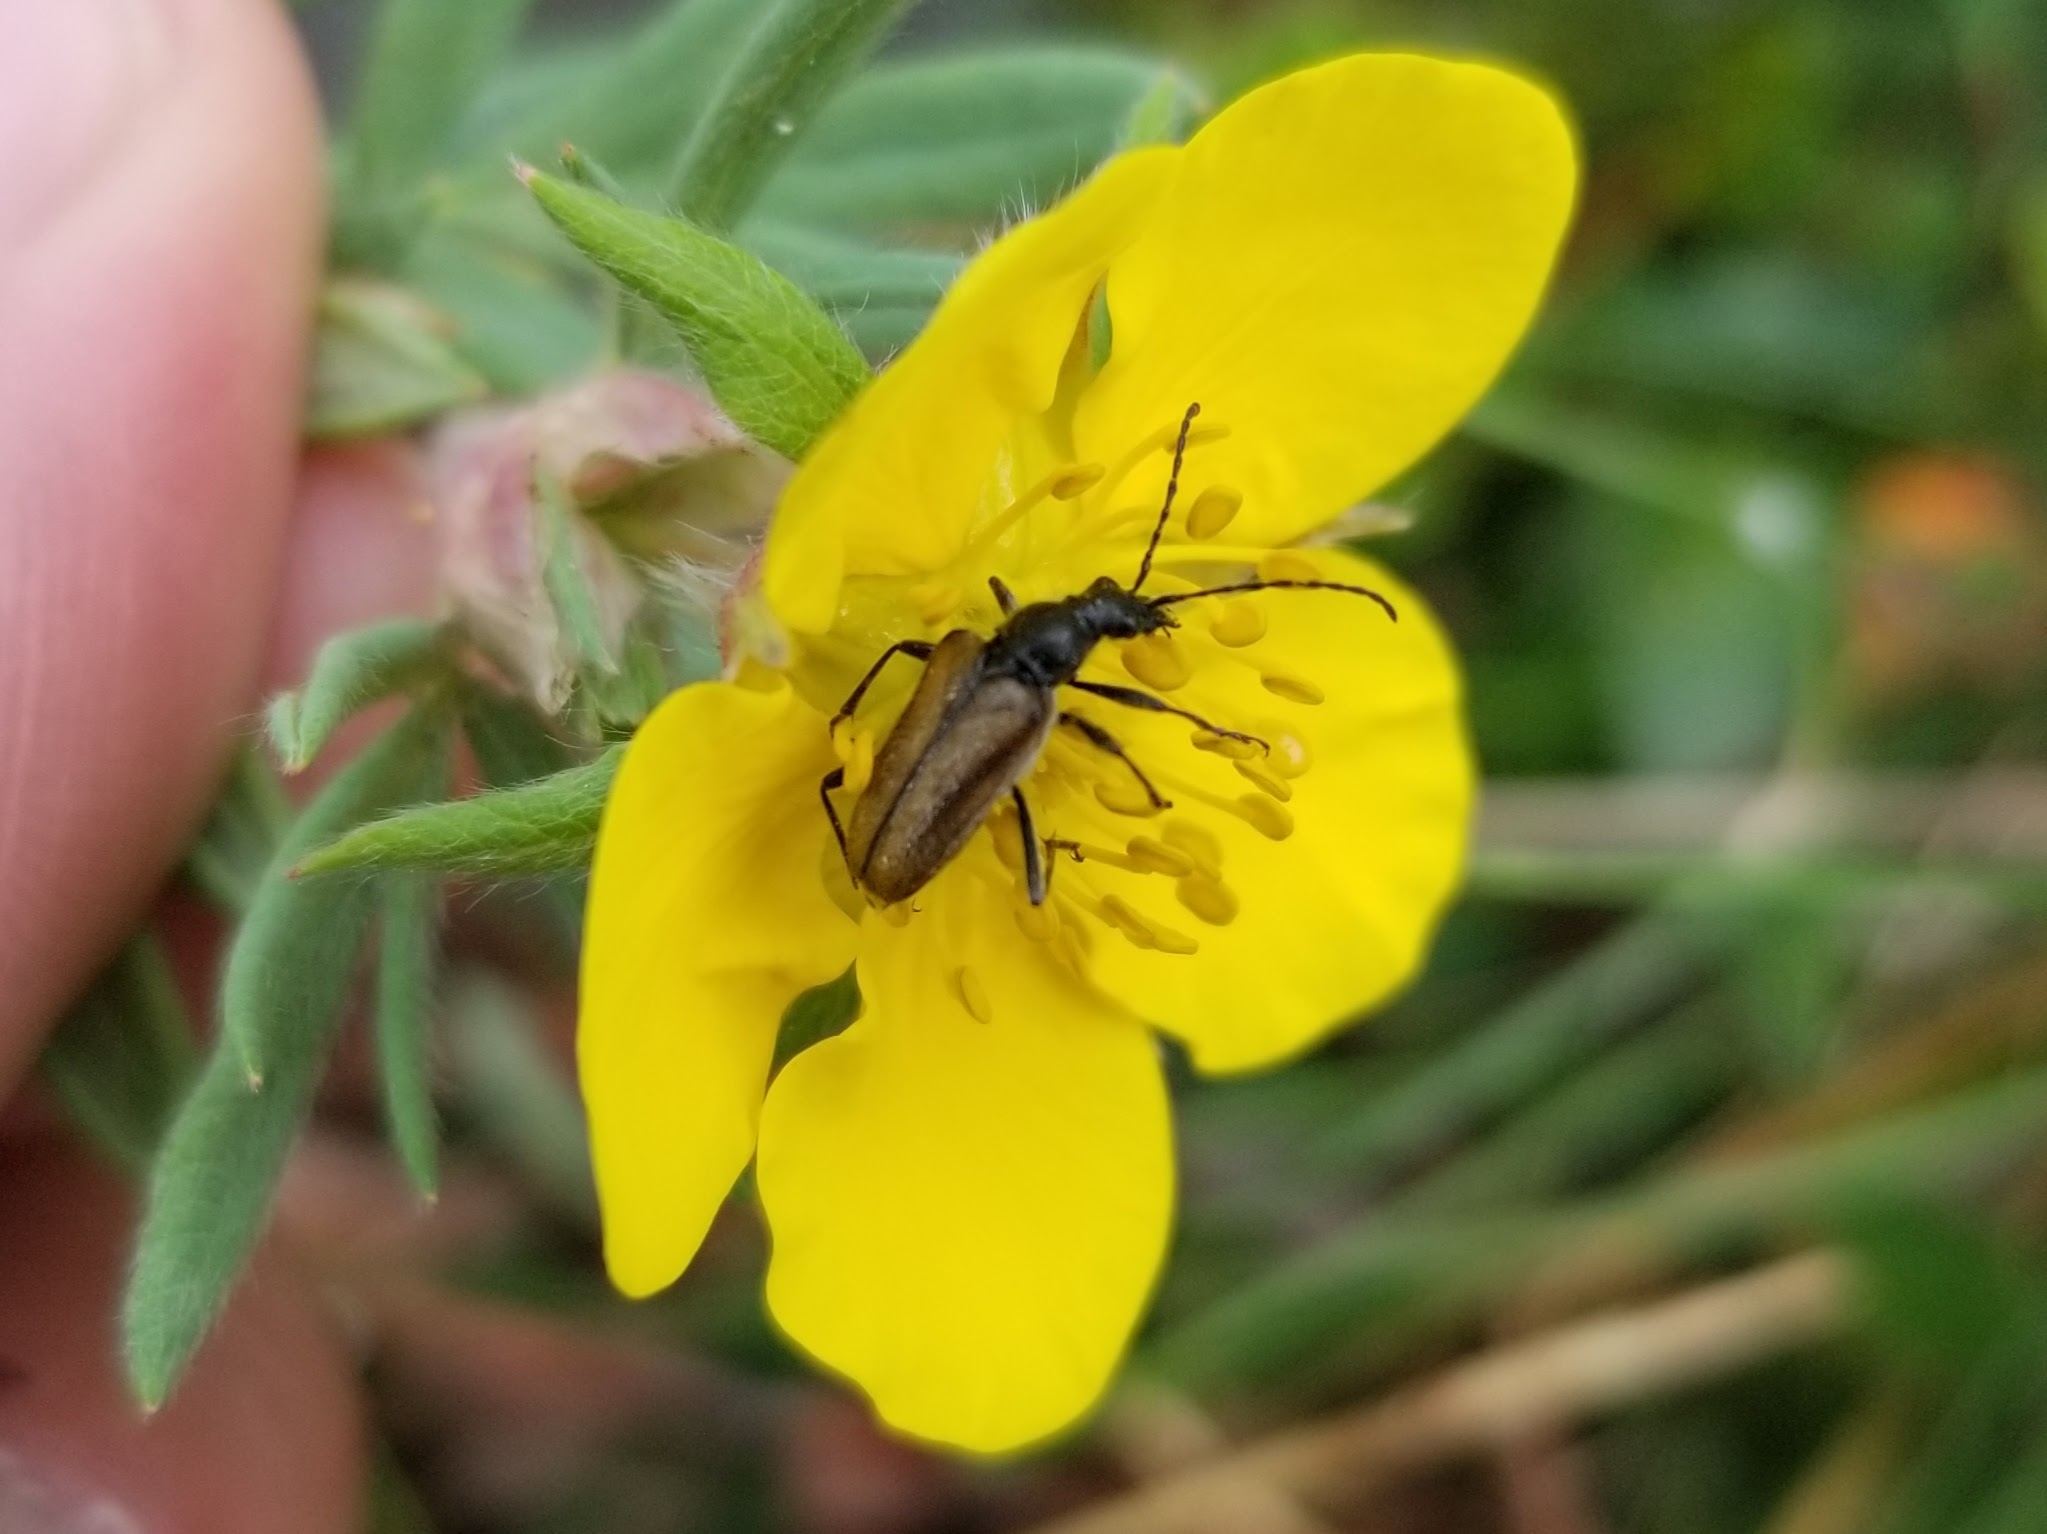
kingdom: Animalia
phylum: Arthropoda
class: Insecta
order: Coleoptera
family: Cerambycidae
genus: Gnathacmaeops
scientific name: Gnathacmaeops pratensis
